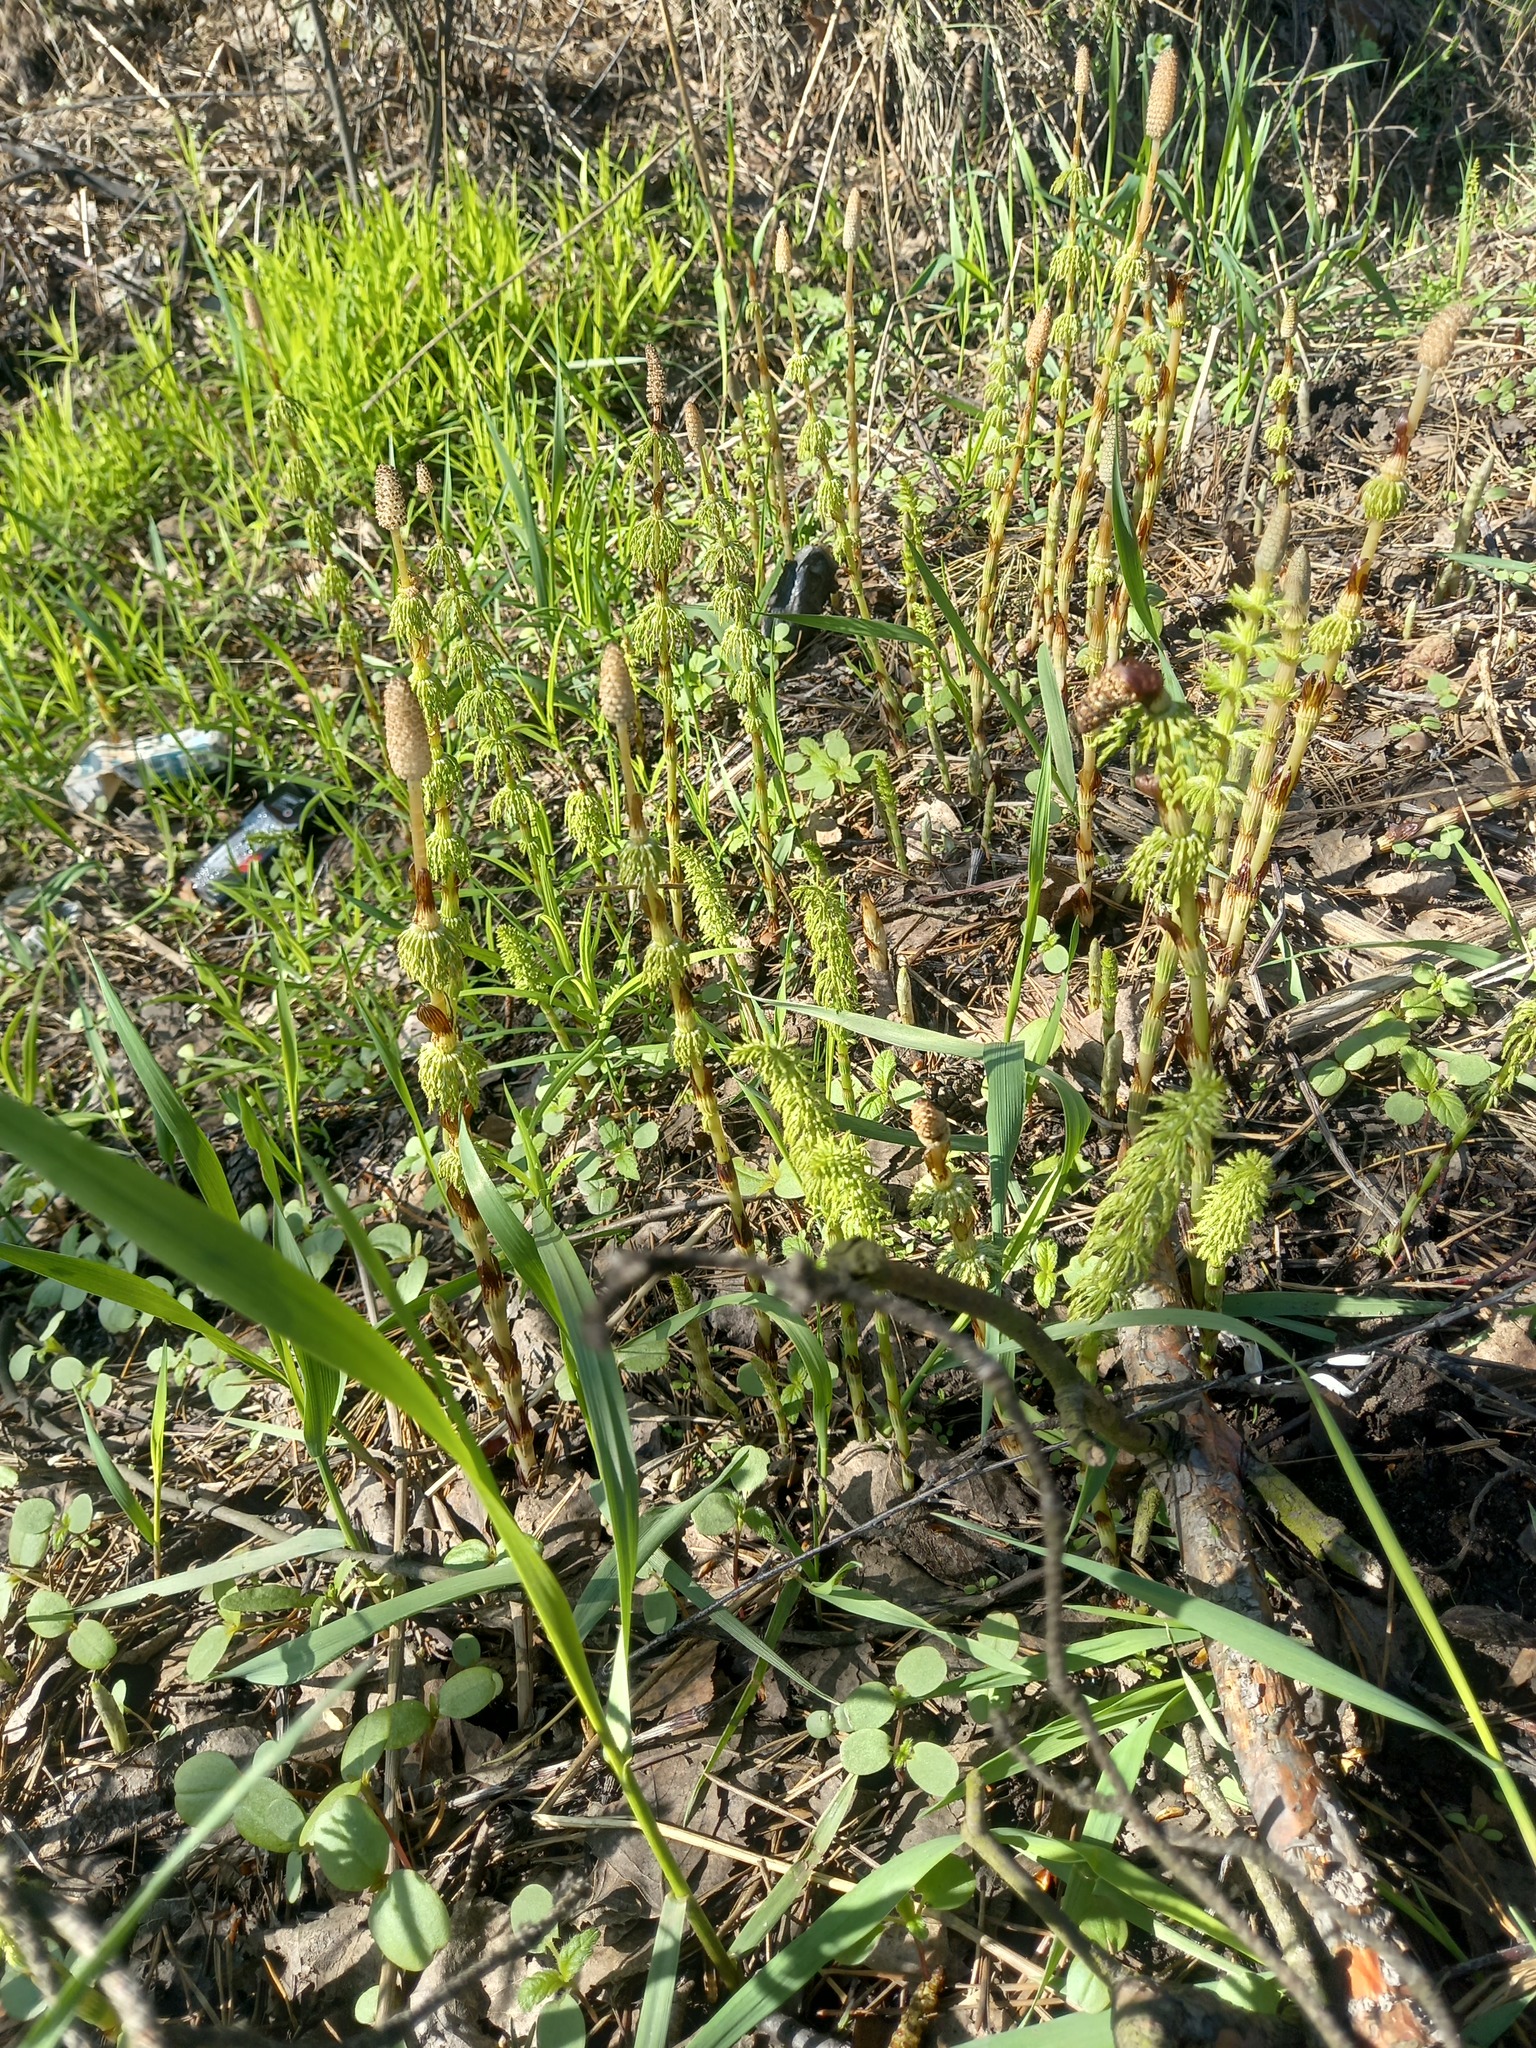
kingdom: Plantae
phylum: Tracheophyta
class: Polypodiopsida
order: Equisetales
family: Equisetaceae
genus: Equisetum
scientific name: Equisetum sylvaticum
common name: Wood horsetail
